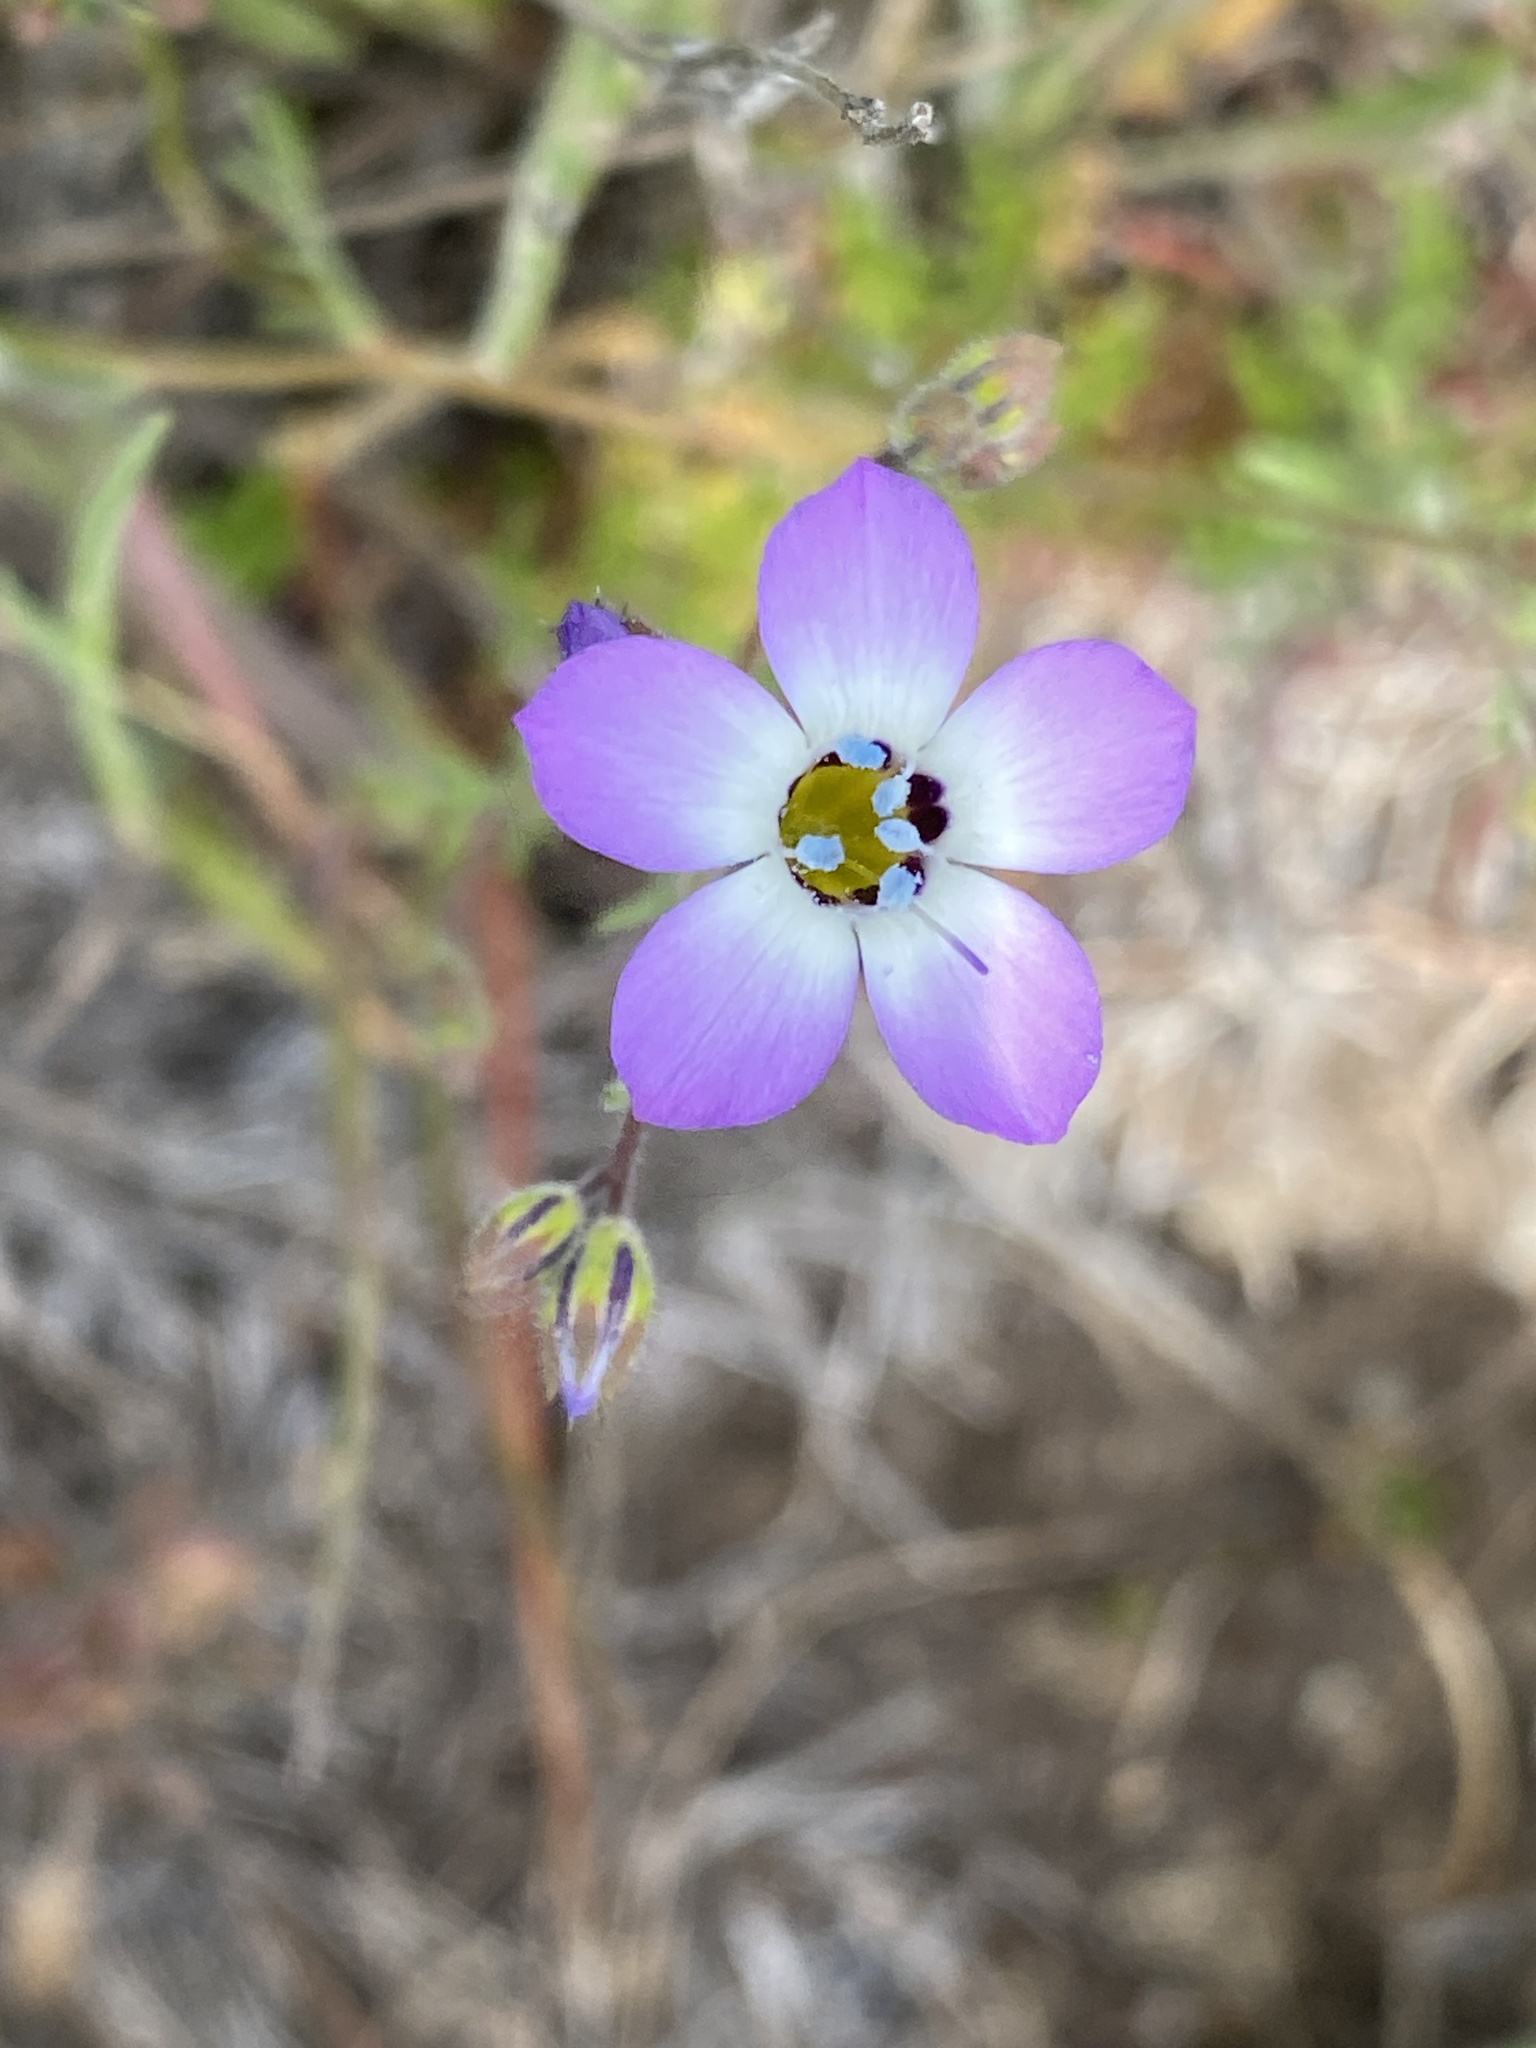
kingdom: Plantae
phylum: Tracheophyta
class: Magnoliopsida
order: Ericales
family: Polemoniaceae
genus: Gilia
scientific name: Gilia tricolor
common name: Bird's-eyes
